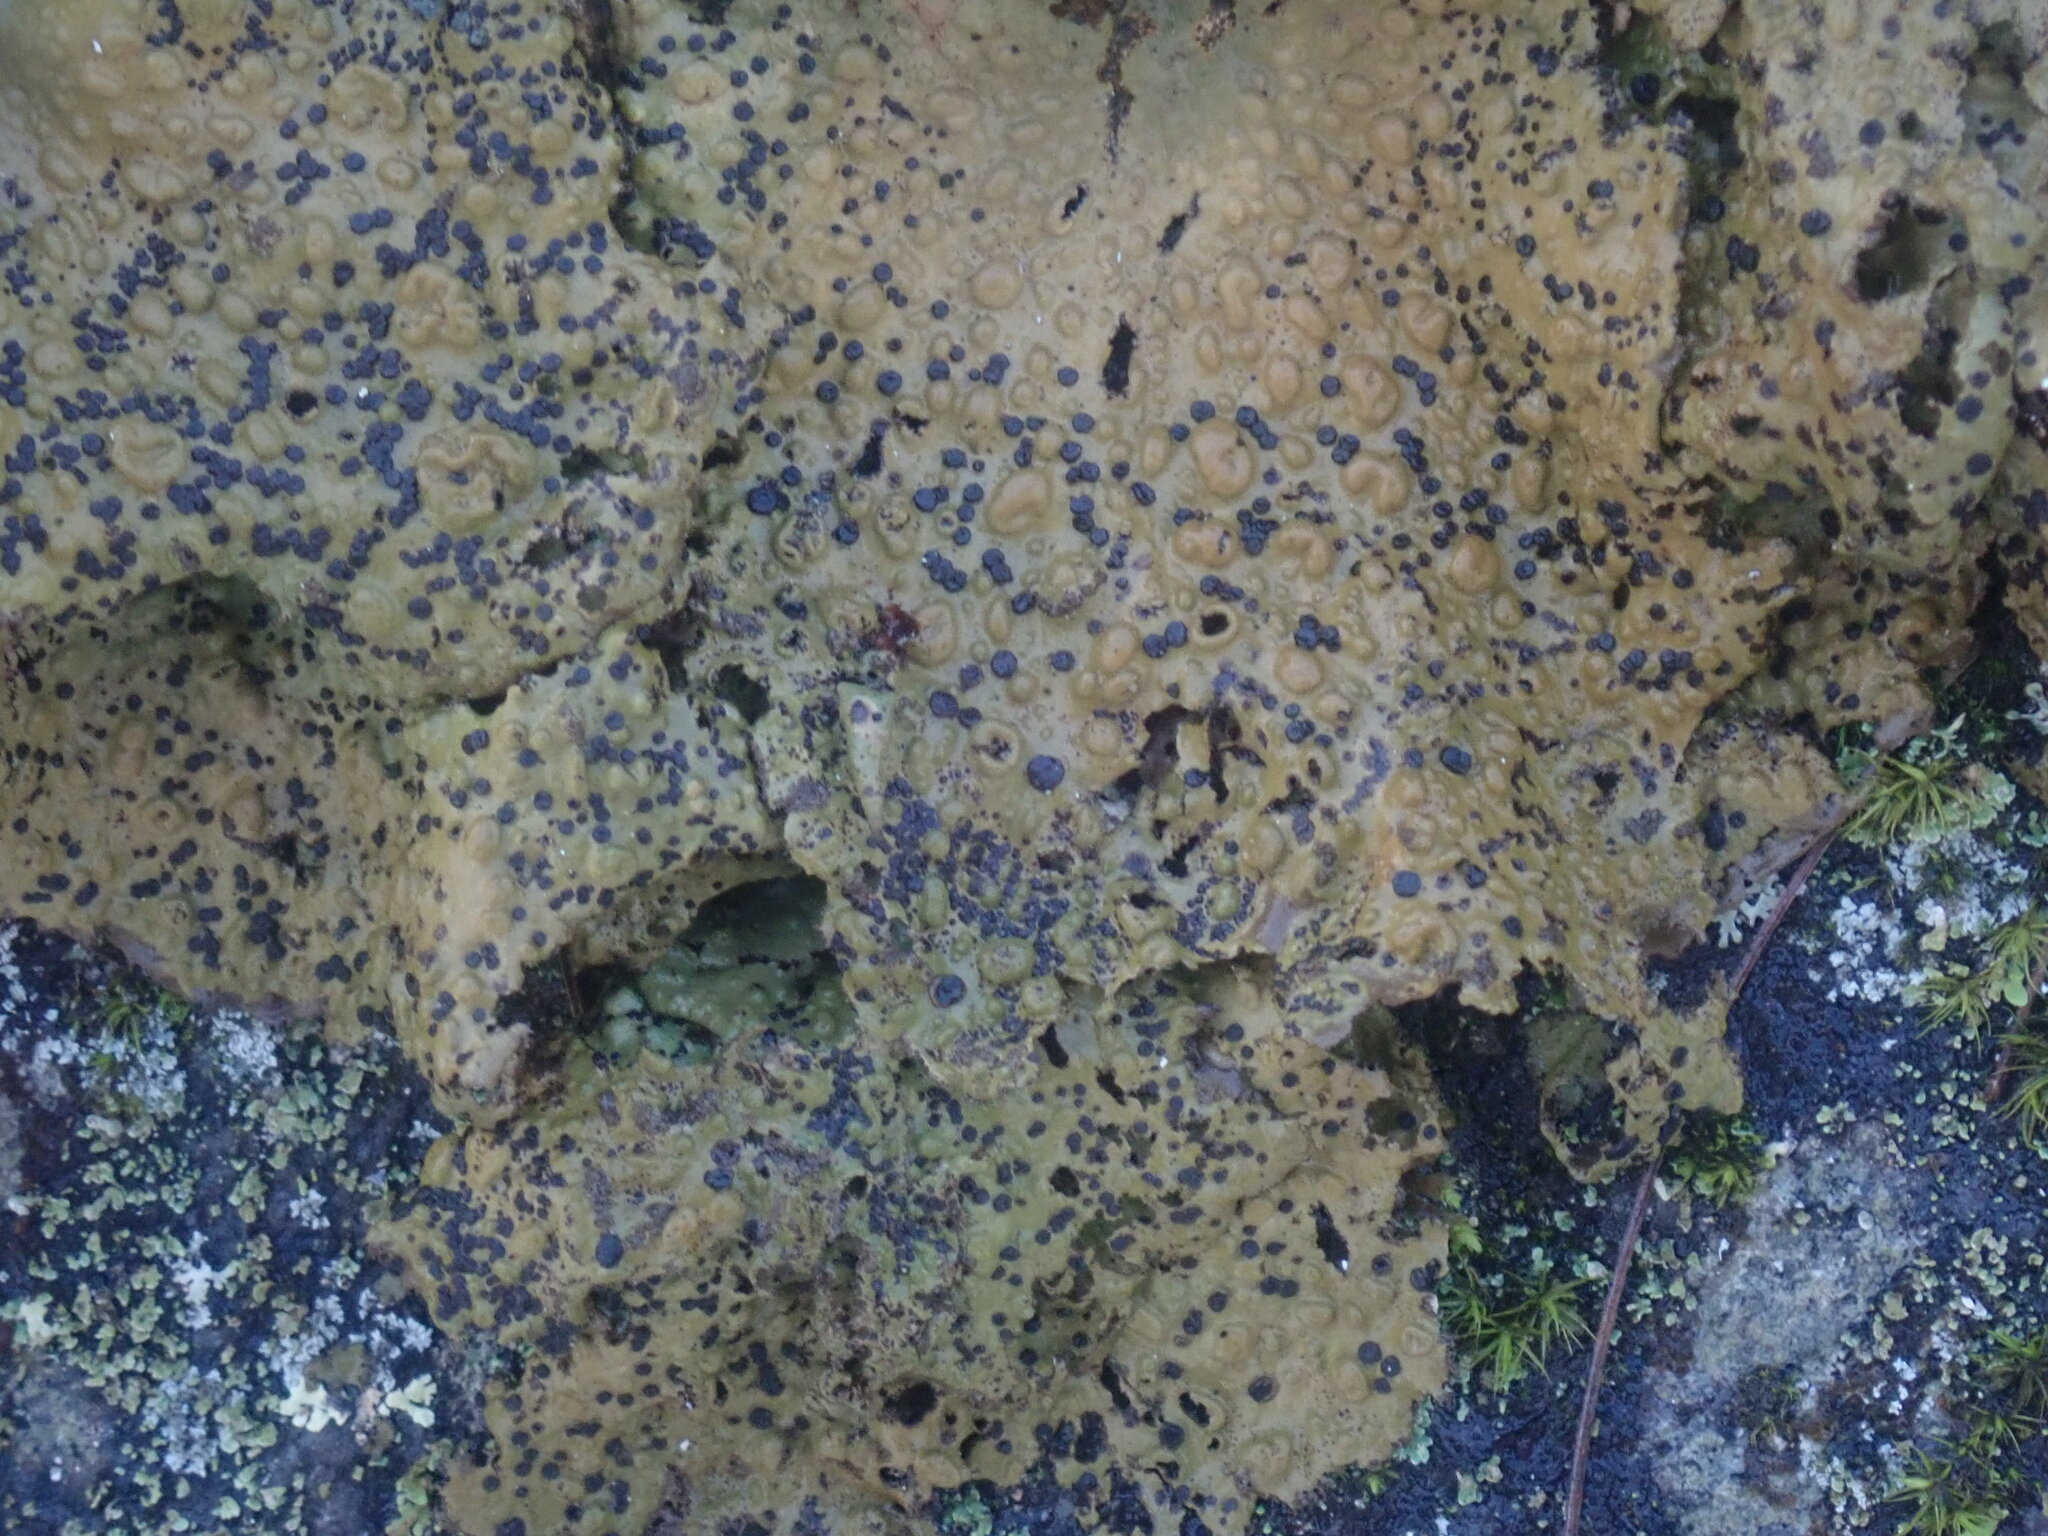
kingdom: Fungi
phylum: Ascomycota
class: Lecanoromycetes
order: Umbilicariales
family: Umbilicariaceae
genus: Lasallia
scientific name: Lasallia papulosa
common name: Common toadskin lichen
